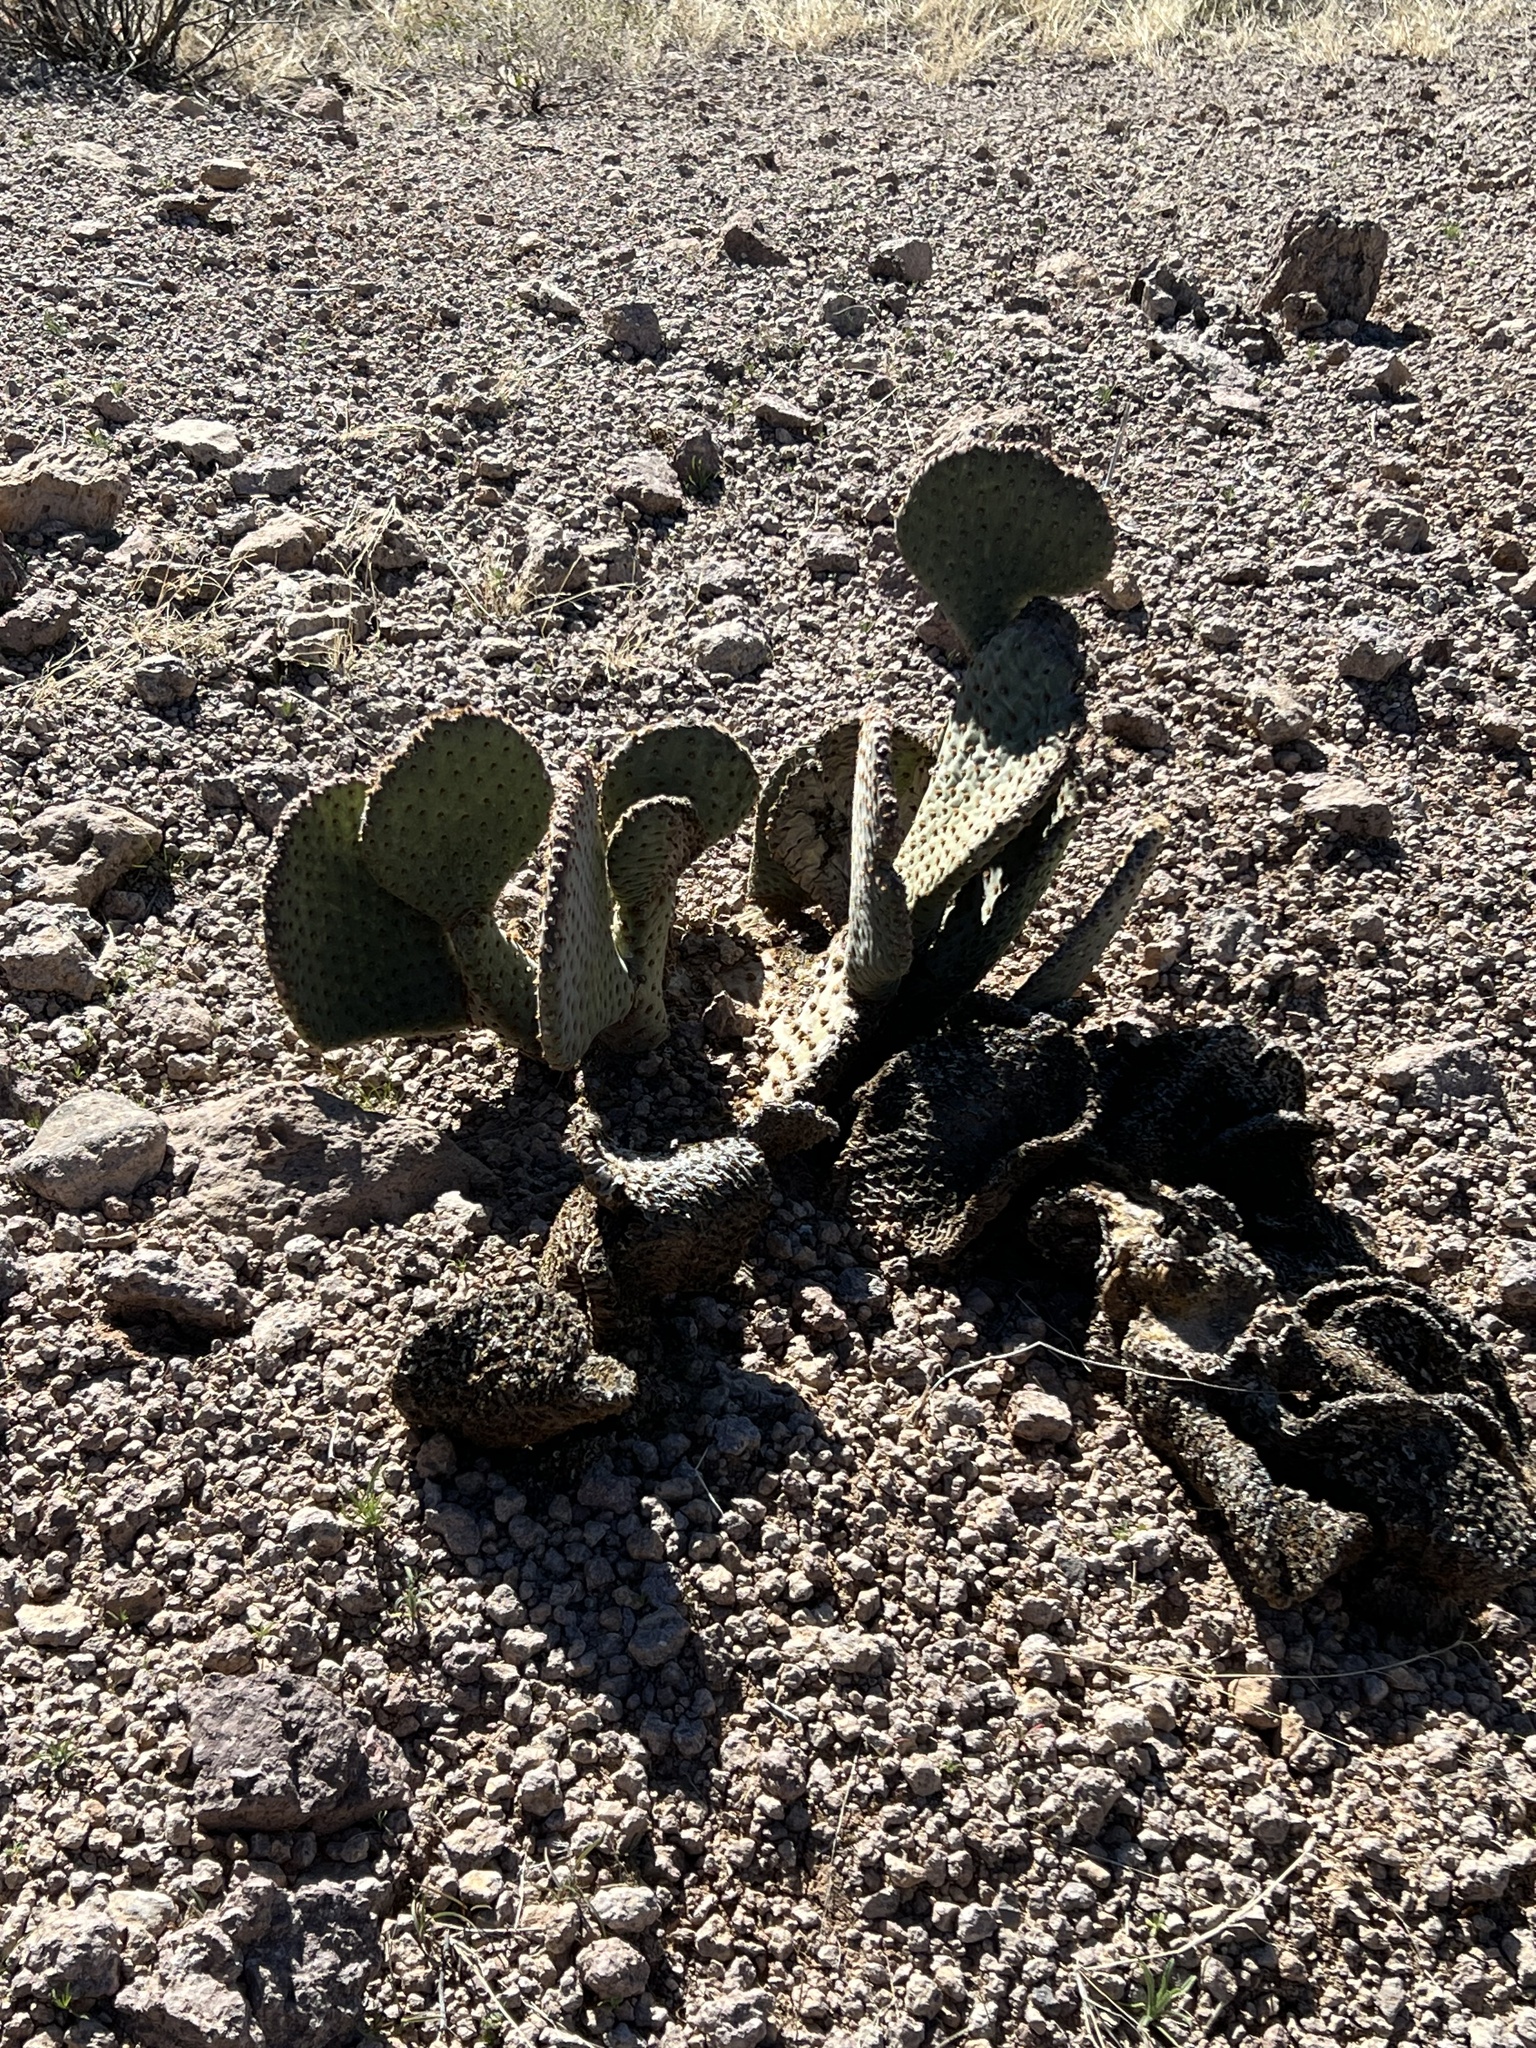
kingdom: Plantae
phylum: Tracheophyta
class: Magnoliopsida
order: Caryophyllales
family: Cactaceae
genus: Opuntia
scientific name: Opuntia basilaris
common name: Beavertail prickly-pear
